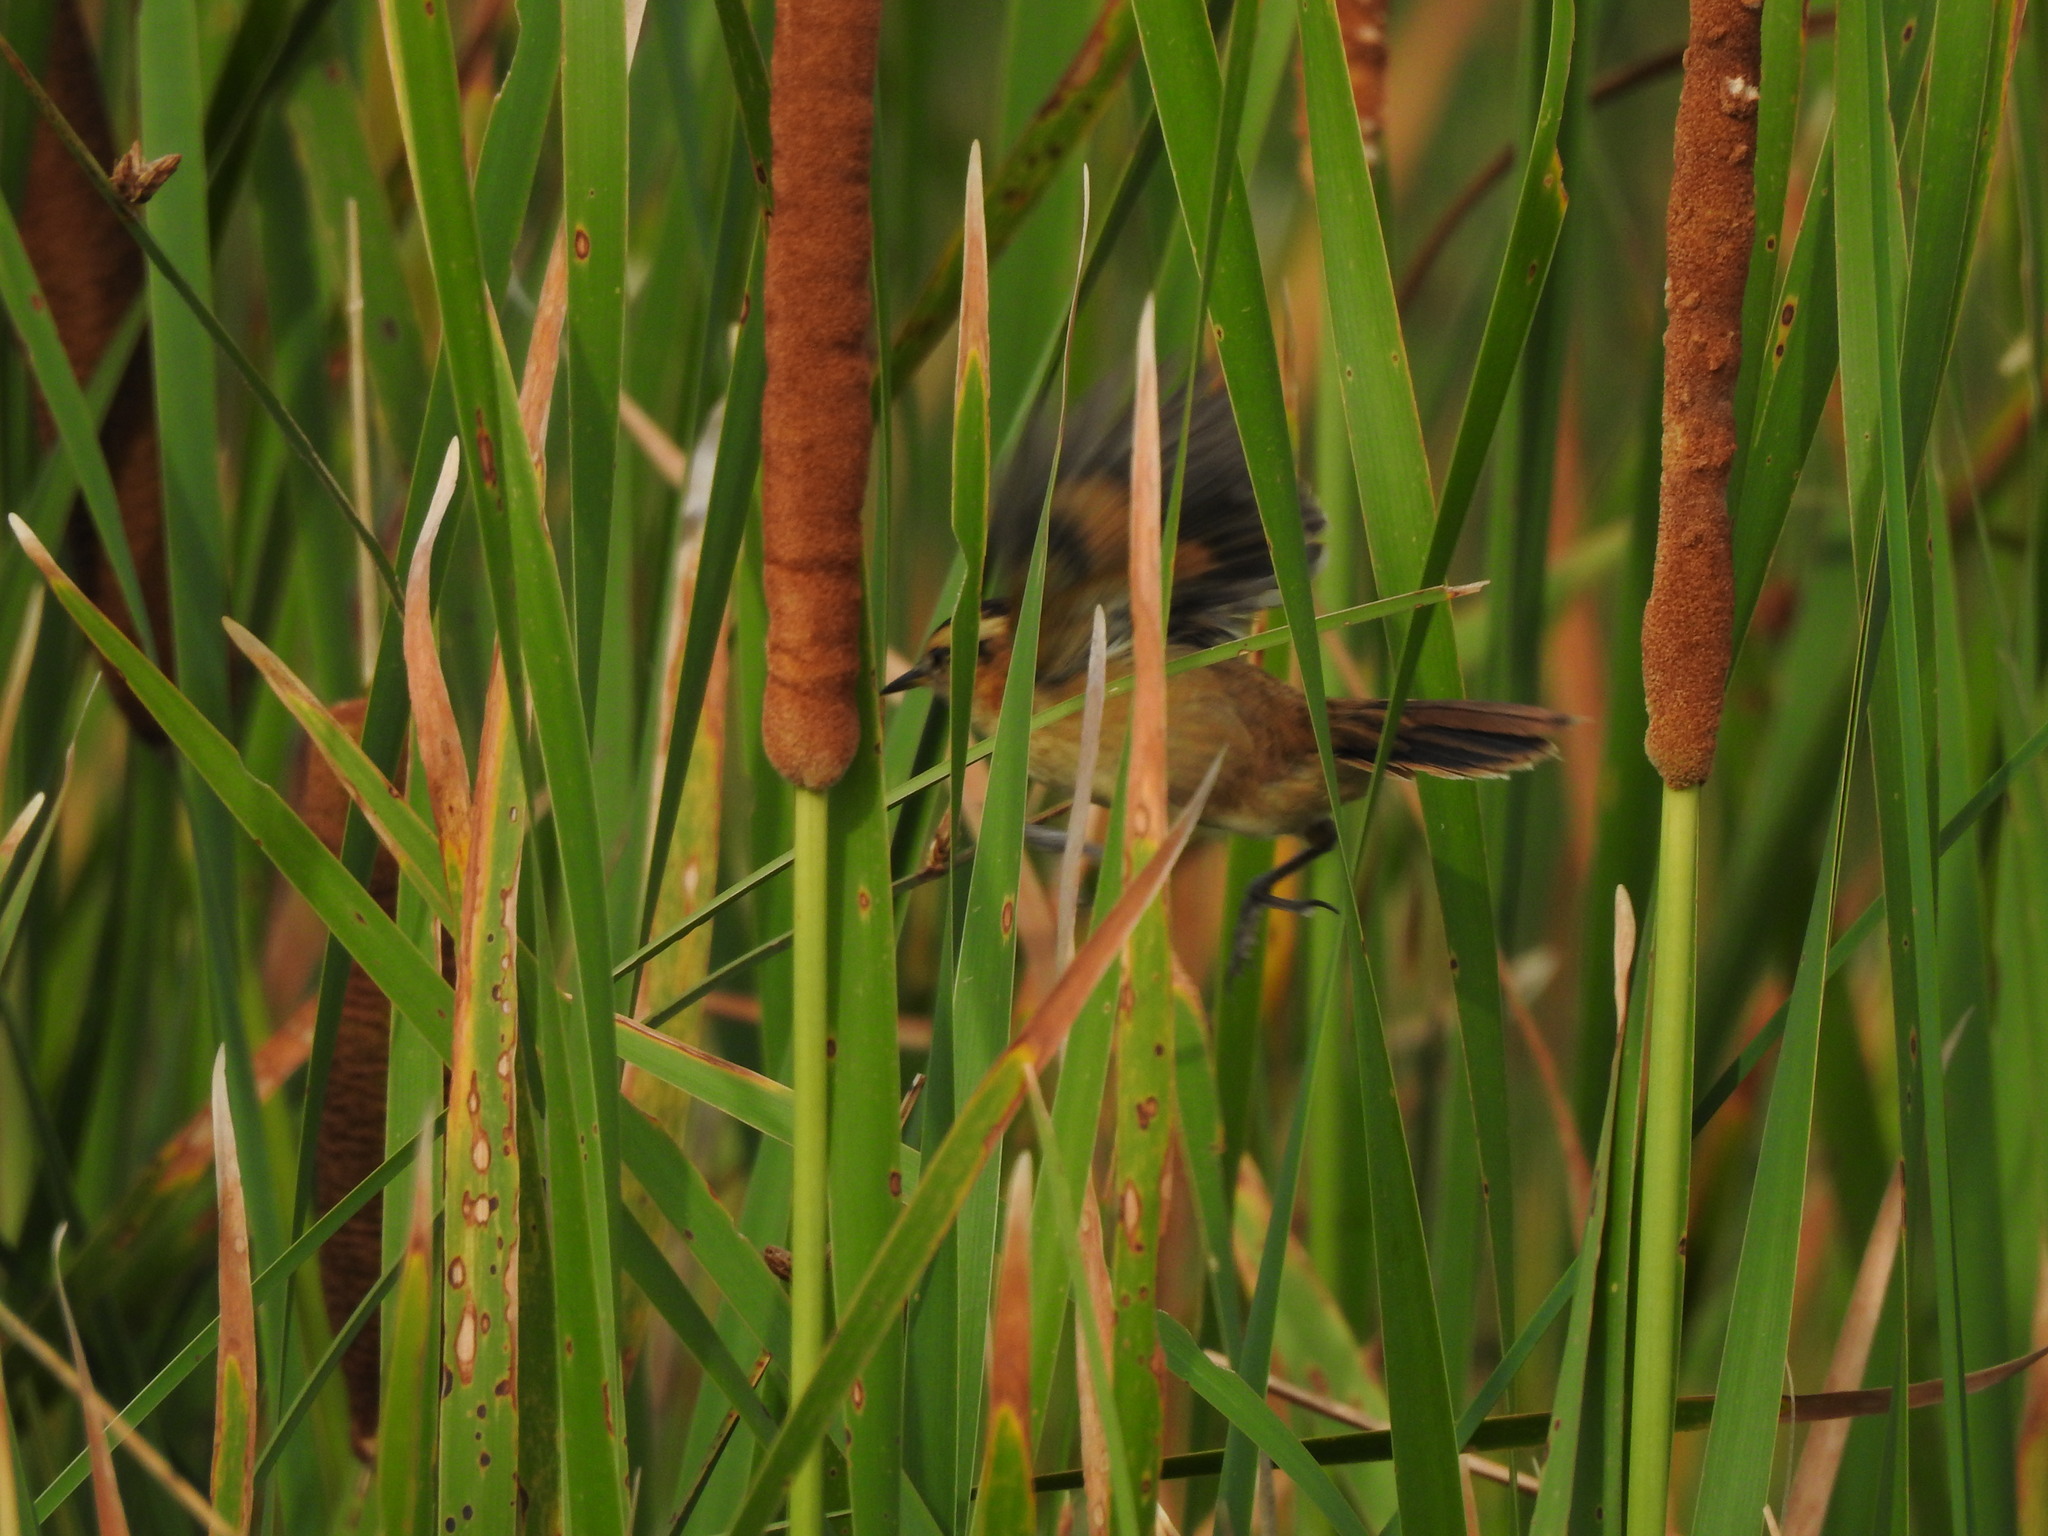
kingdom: Animalia
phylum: Chordata
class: Aves
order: Passeriformes
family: Furnariidae
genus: Phleocryptes
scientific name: Phleocryptes melanops
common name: Wren-like rushbird
